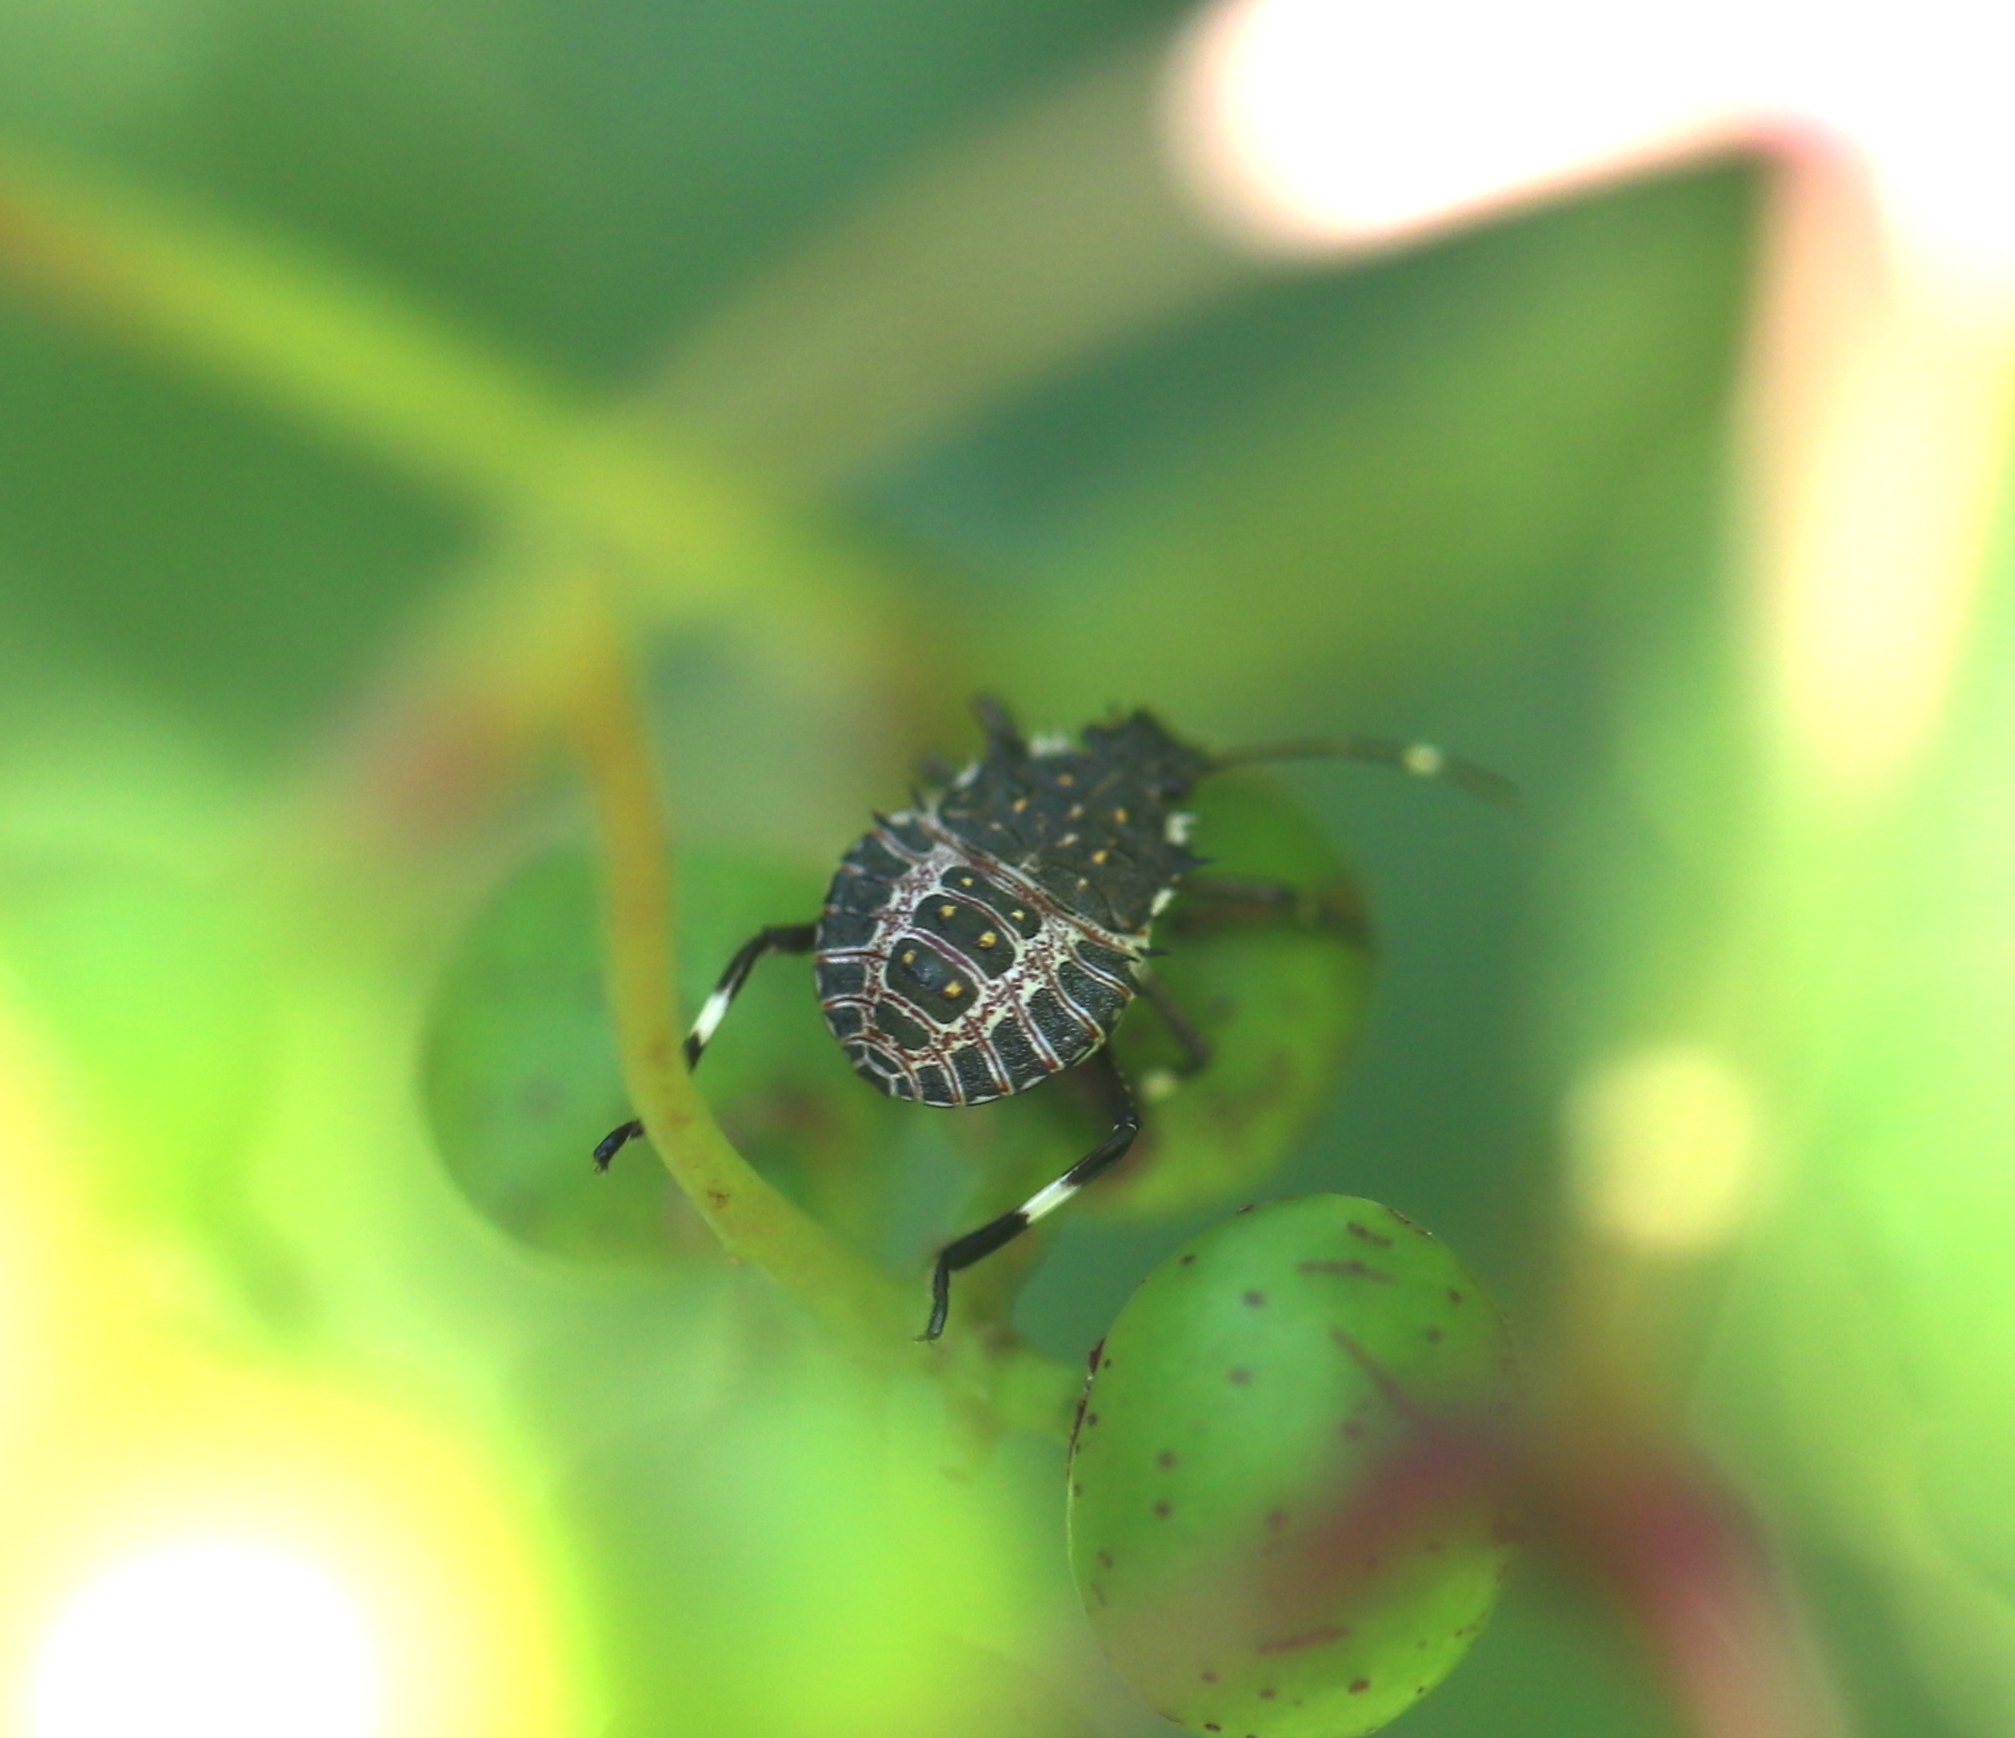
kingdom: Animalia
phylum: Arthropoda
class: Insecta
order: Hemiptera
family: Pentatomidae
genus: Halyomorpha
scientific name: Halyomorpha halys
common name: Brown marmorated stink bug
